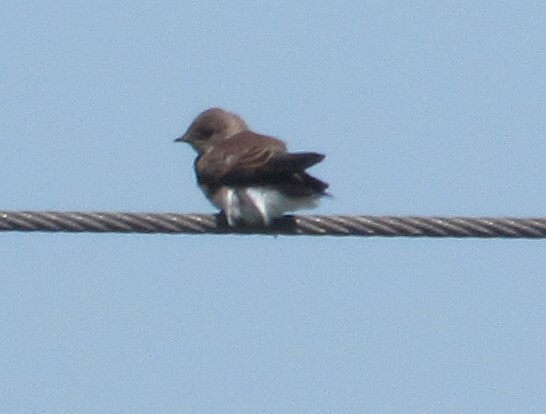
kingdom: Animalia
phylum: Chordata
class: Aves
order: Passeriformes
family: Hirundinidae
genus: Stelgidopteryx
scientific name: Stelgidopteryx serripennis
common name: Northern rough-winged swallow
